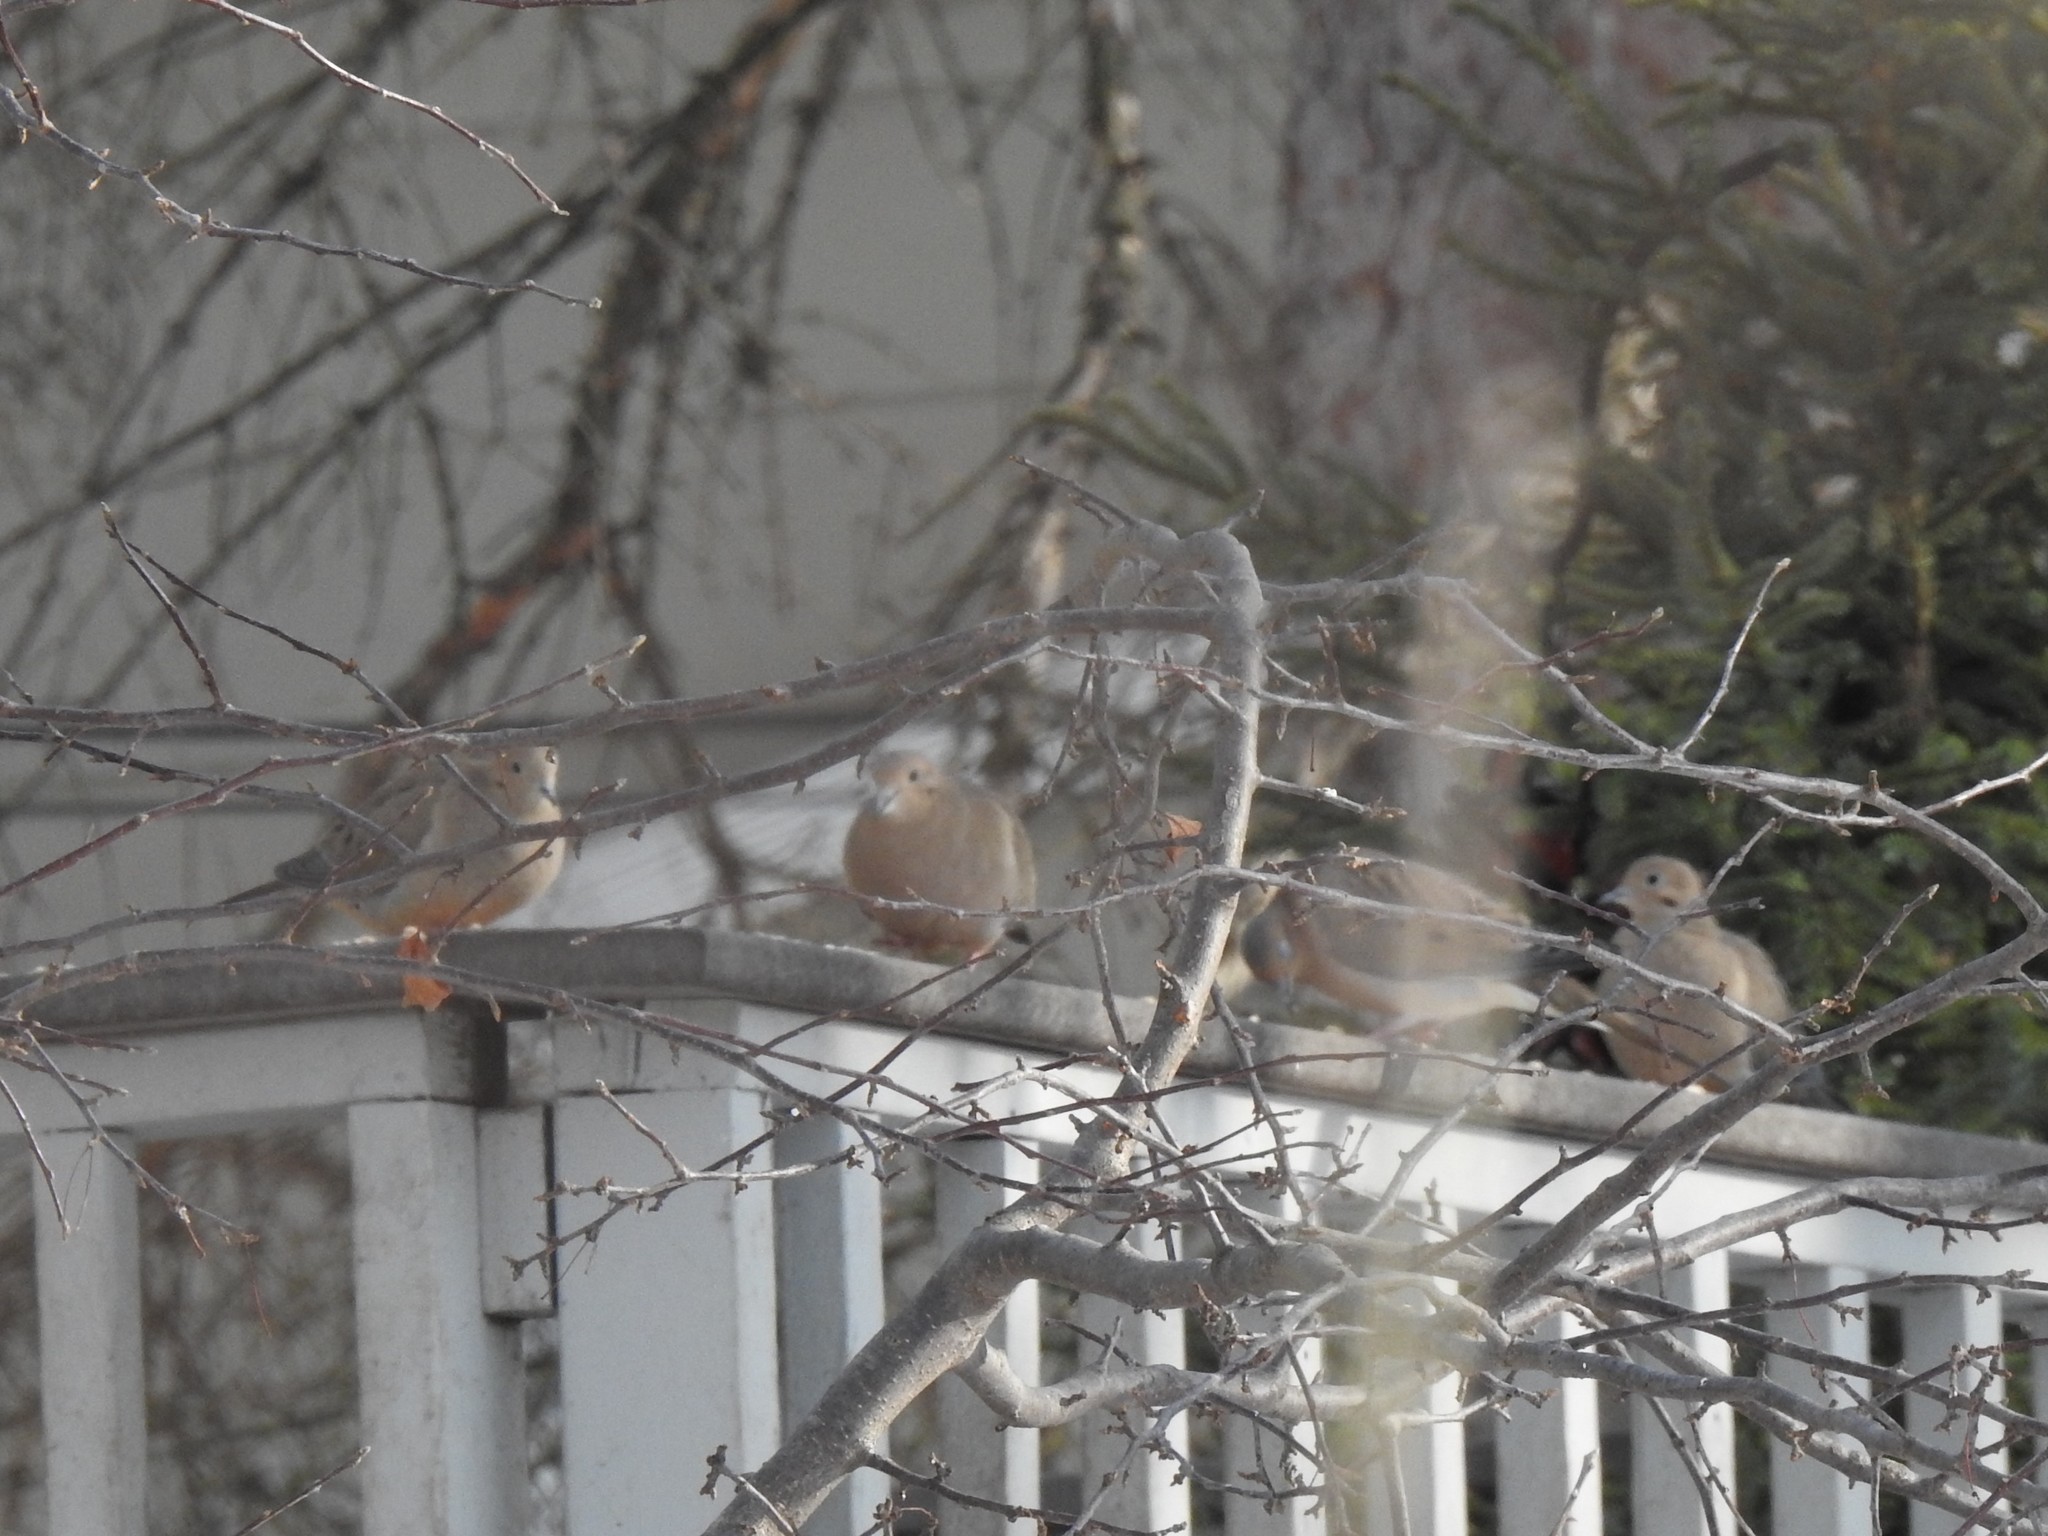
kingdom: Animalia
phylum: Chordata
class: Aves
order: Columbiformes
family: Columbidae
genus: Zenaida
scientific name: Zenaida macroura
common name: Mourning dove
